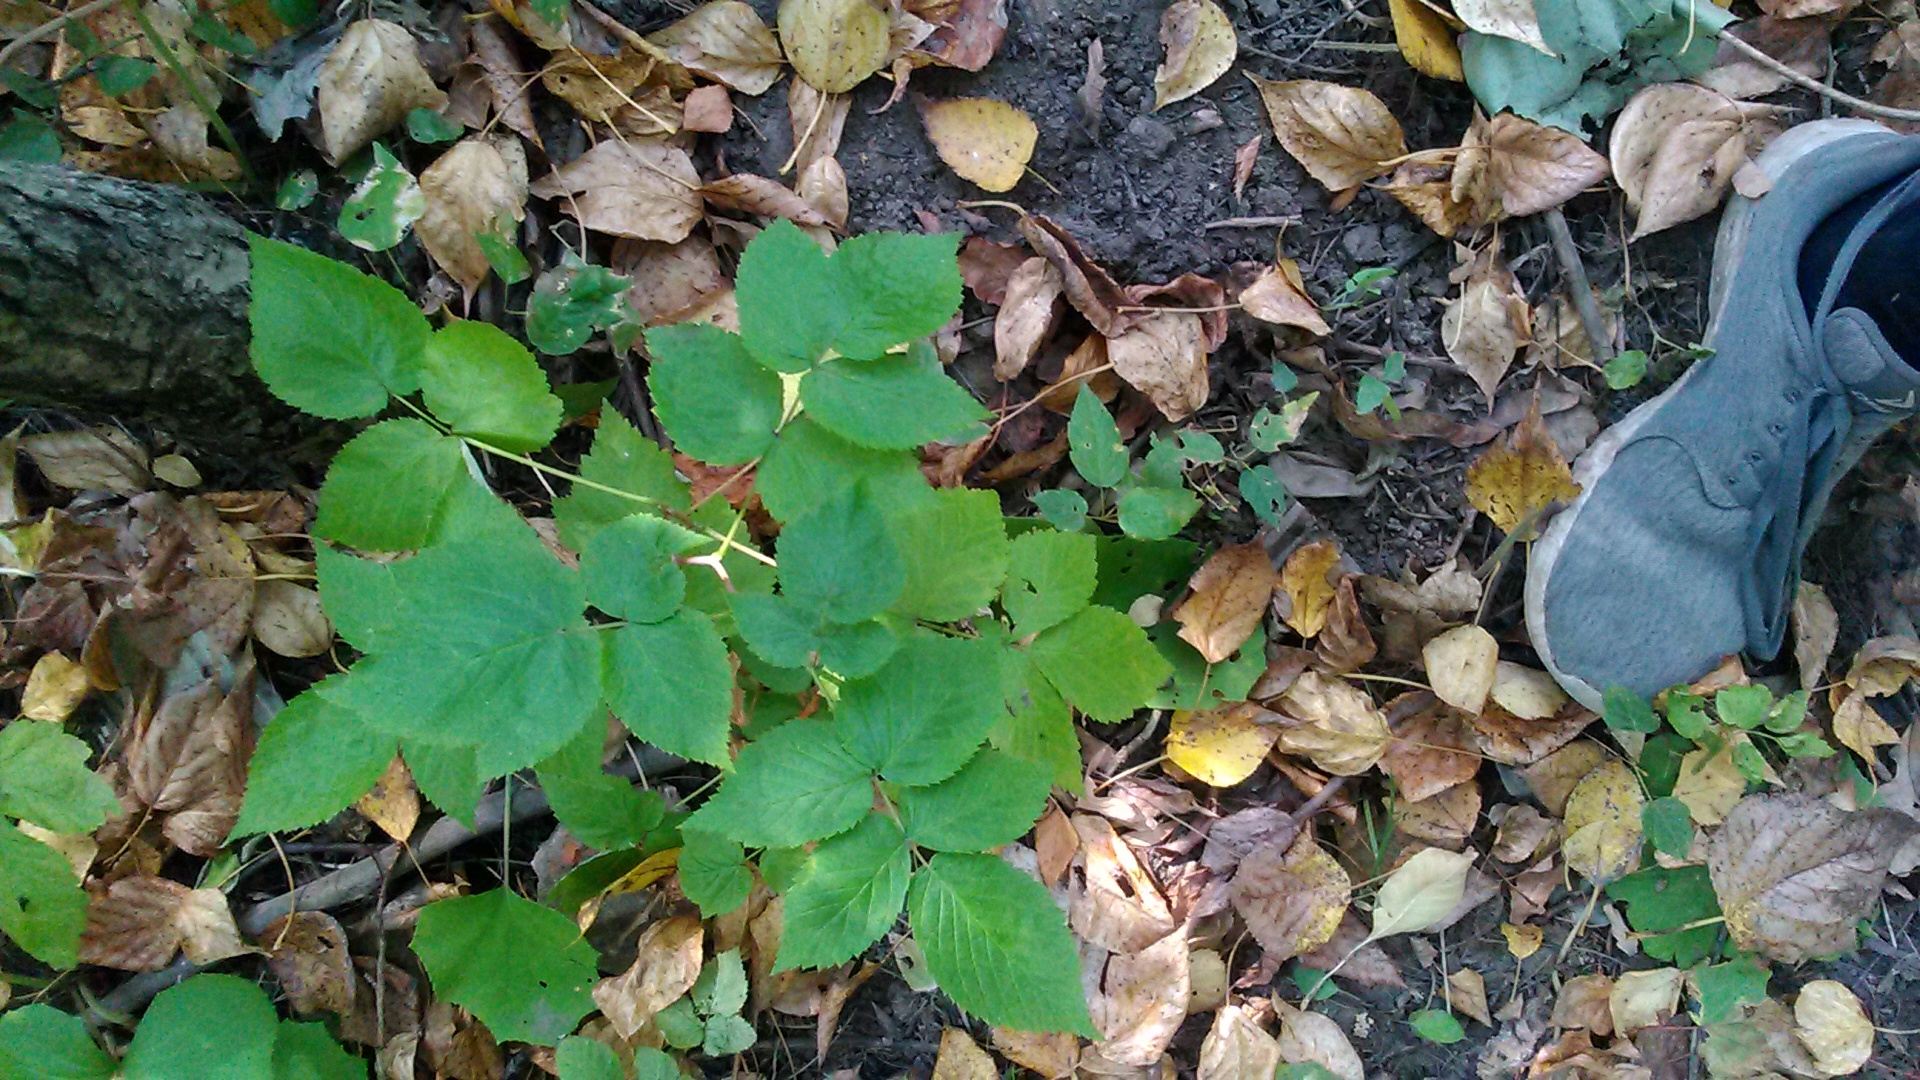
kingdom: Plantae
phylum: Tracheophyta
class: Magnoliopsida
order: Rosales
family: Rosaceae
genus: Rubus
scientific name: Rubus idaeus
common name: Raspberry
